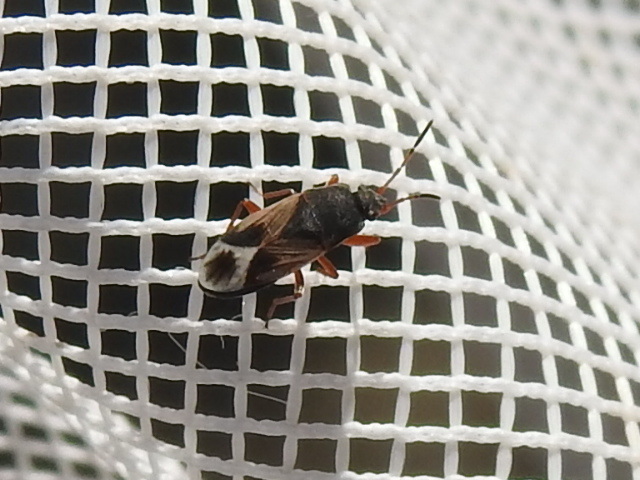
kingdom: Animalia
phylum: Arthropoda
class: Insecta
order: Hemiptera
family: Rhyparochromidae
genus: Malezonotus
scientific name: Malezonotus rufipes
